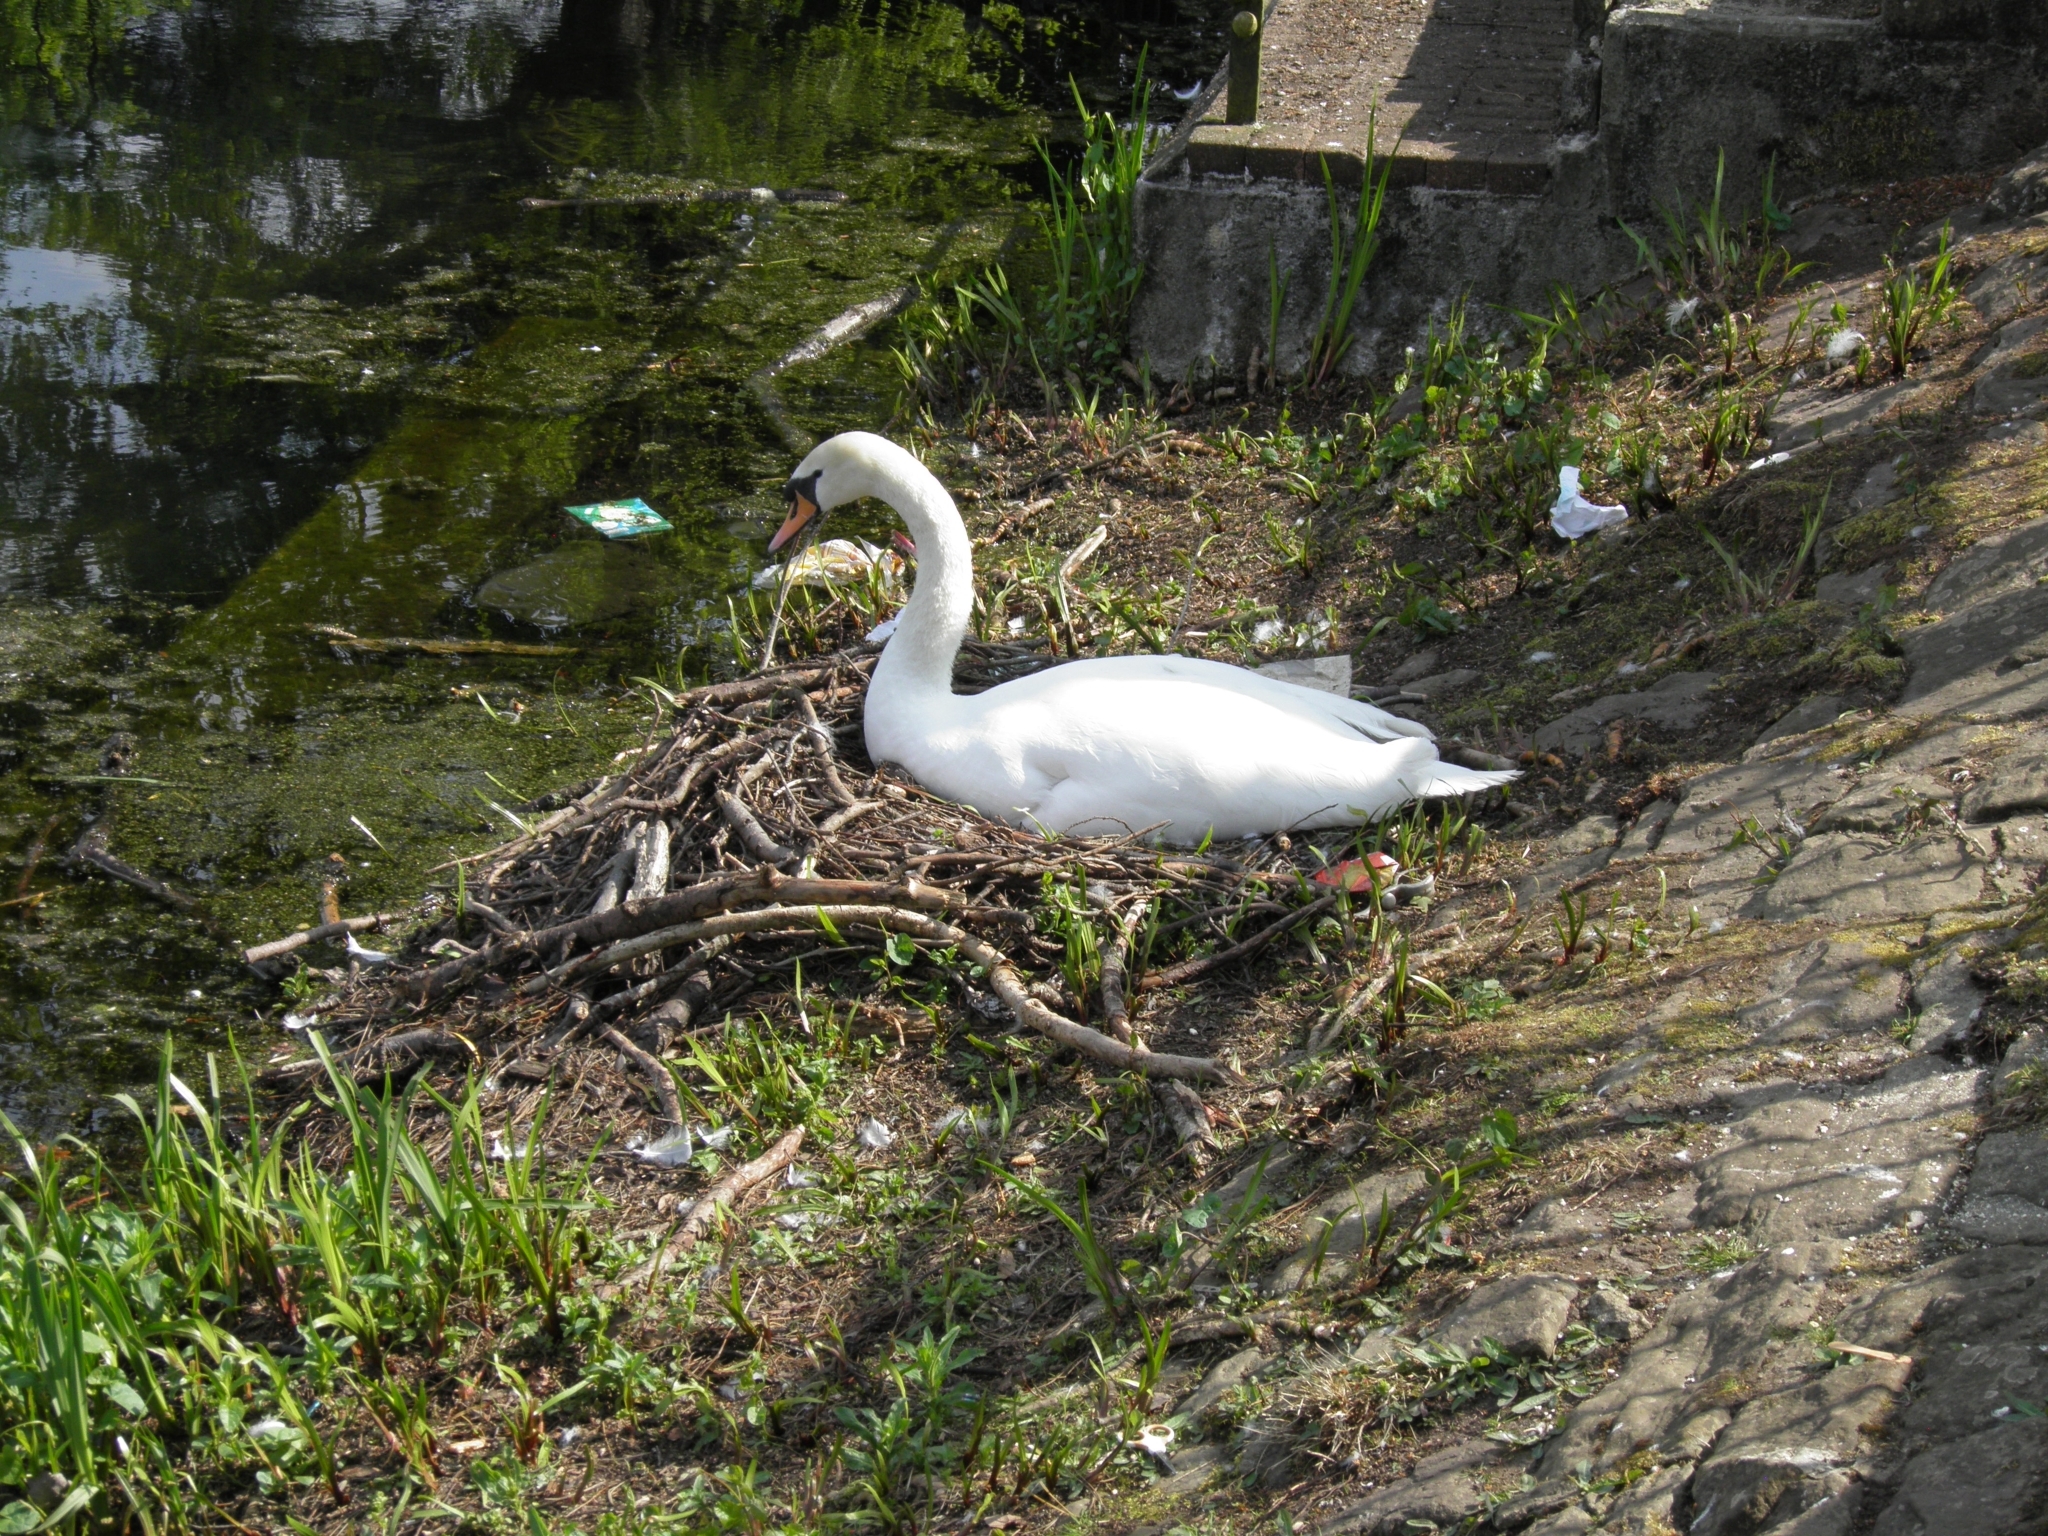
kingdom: Animalia
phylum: Chordata
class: Aves
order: Anseriformes
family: Anatidae
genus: Cygnus
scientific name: Cygnus olor
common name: Mute swan
